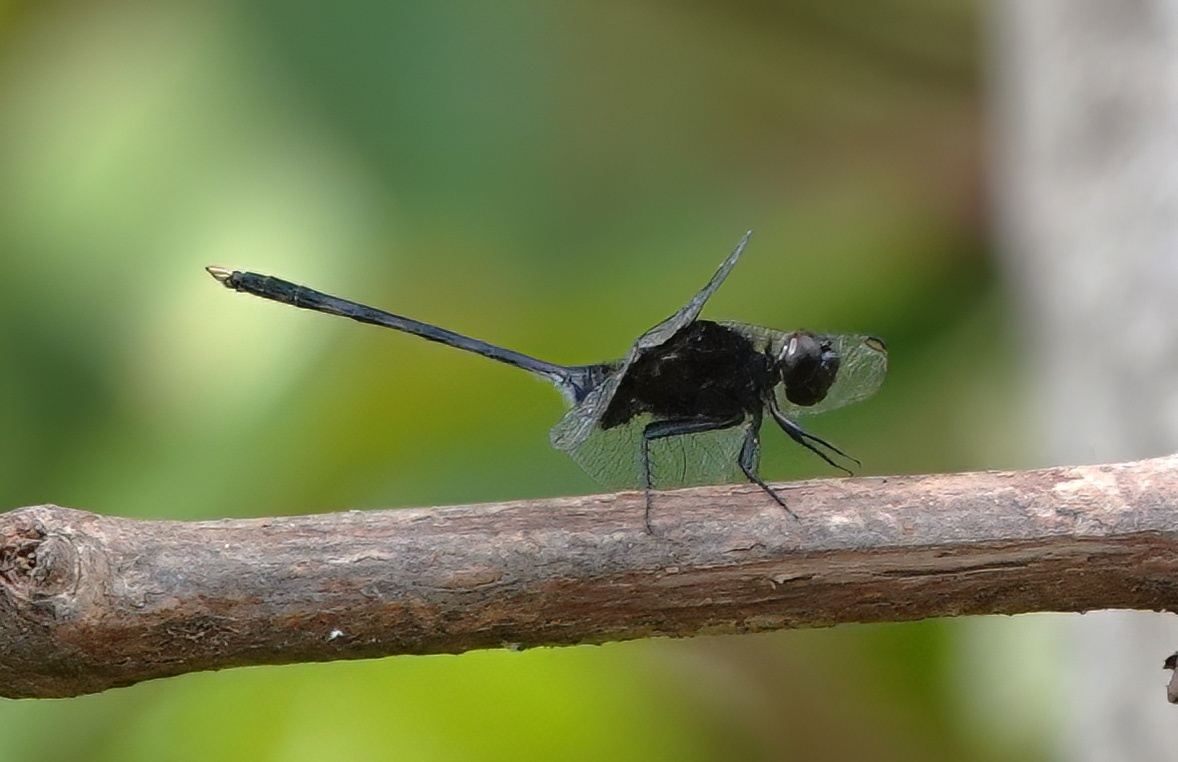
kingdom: Animalia
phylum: Arthropoda
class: Insecta
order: Odonata
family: Libellulidae
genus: Erythemis
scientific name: Erythemis plebeja
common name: Pin-tailed pondhawk
